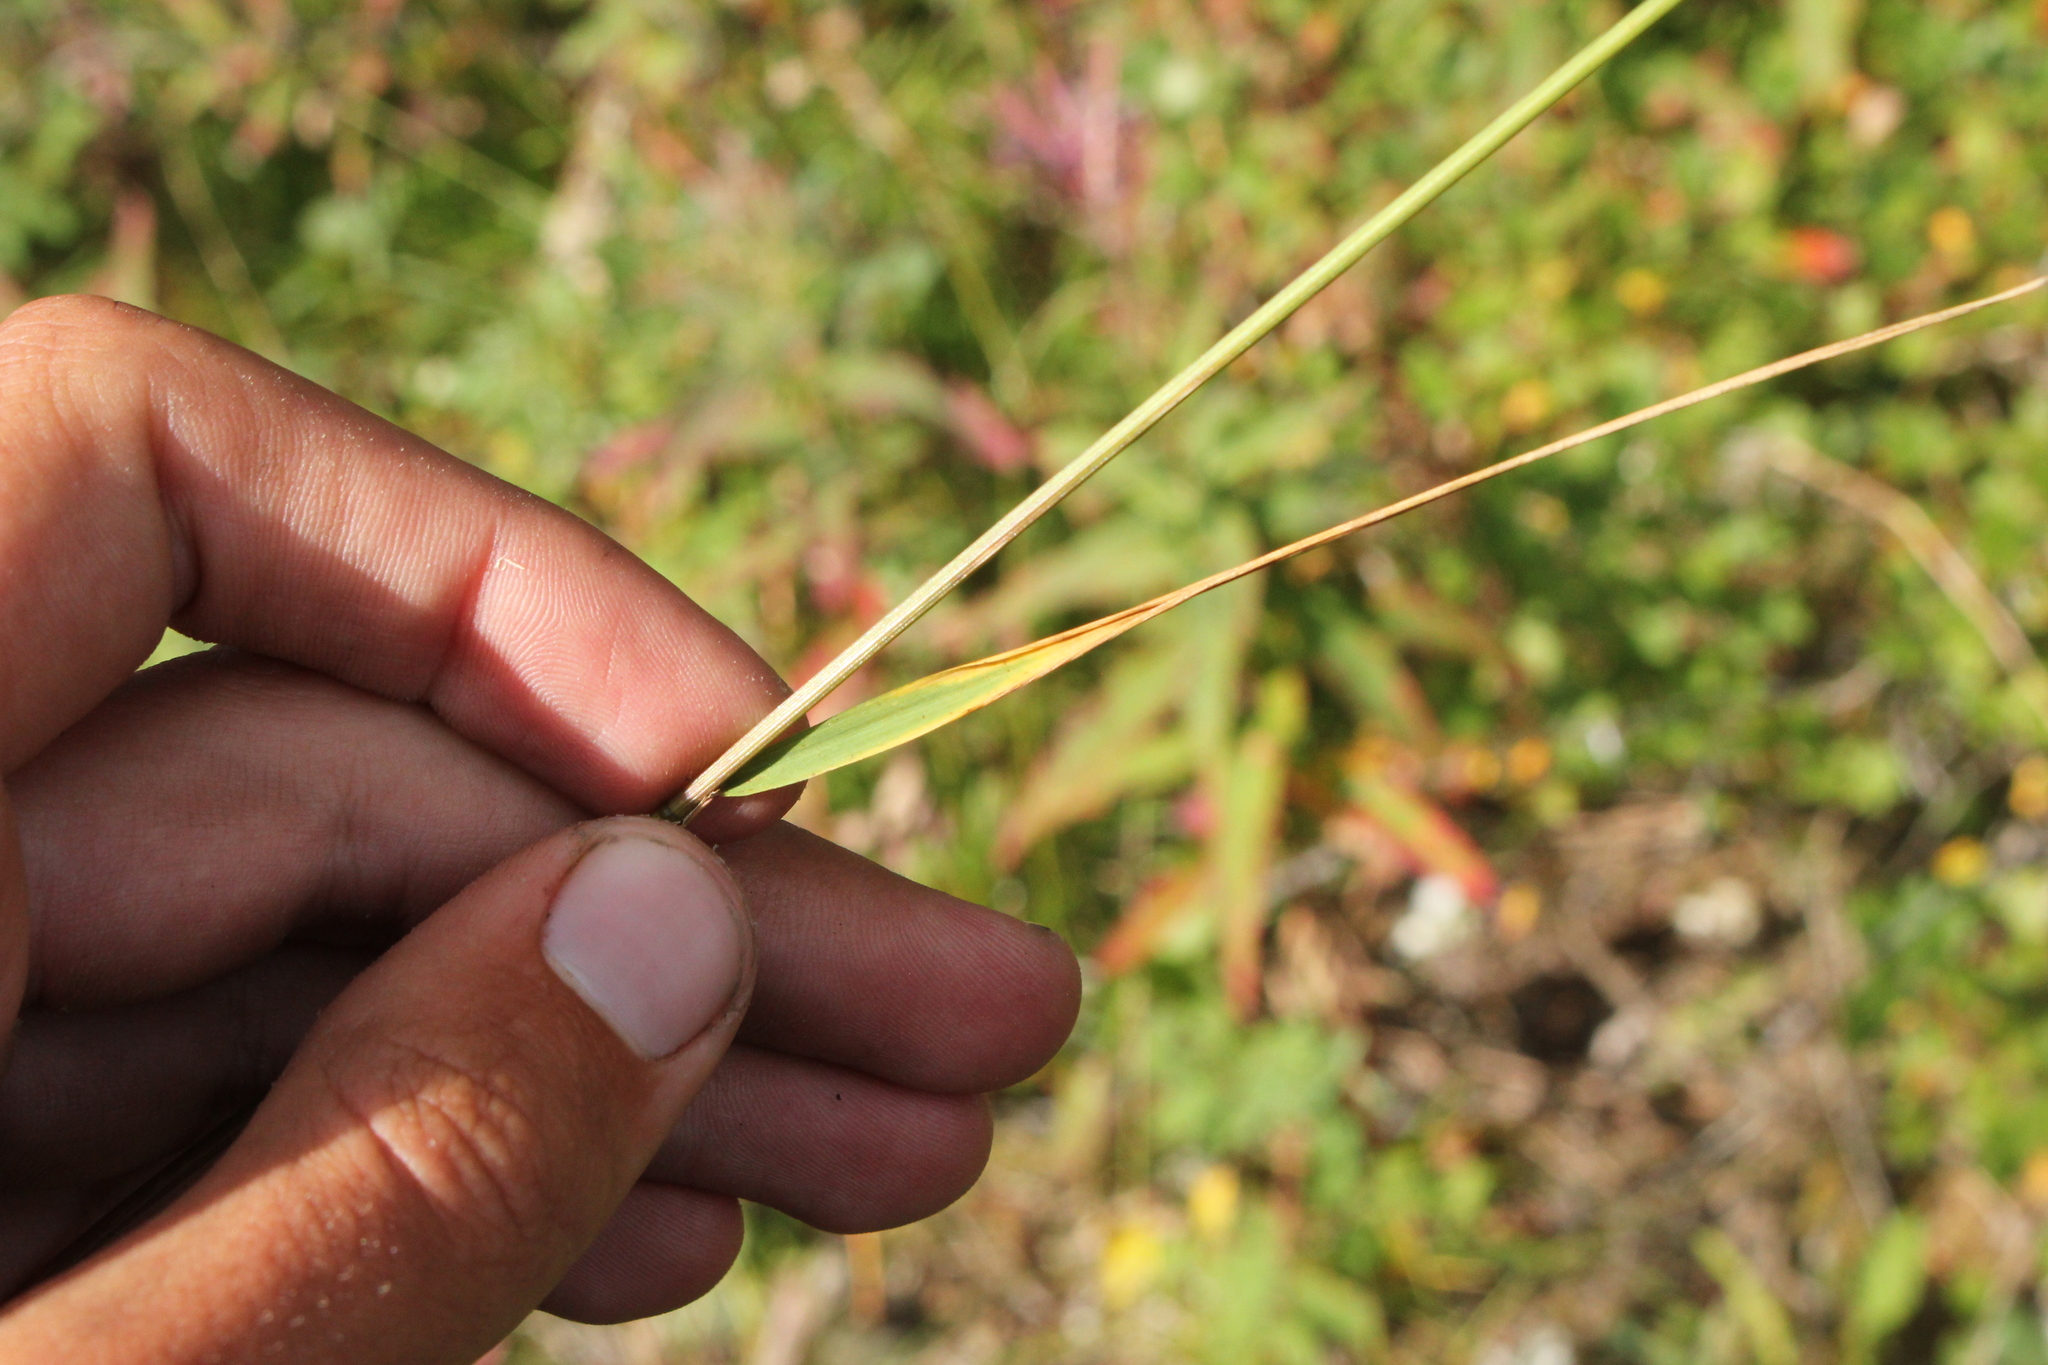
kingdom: Plantae
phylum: Tracheophyta
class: Liliopsida
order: Poales
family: Poaceae
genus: Schizachne
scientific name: Schizachne purpurascens
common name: False melic
